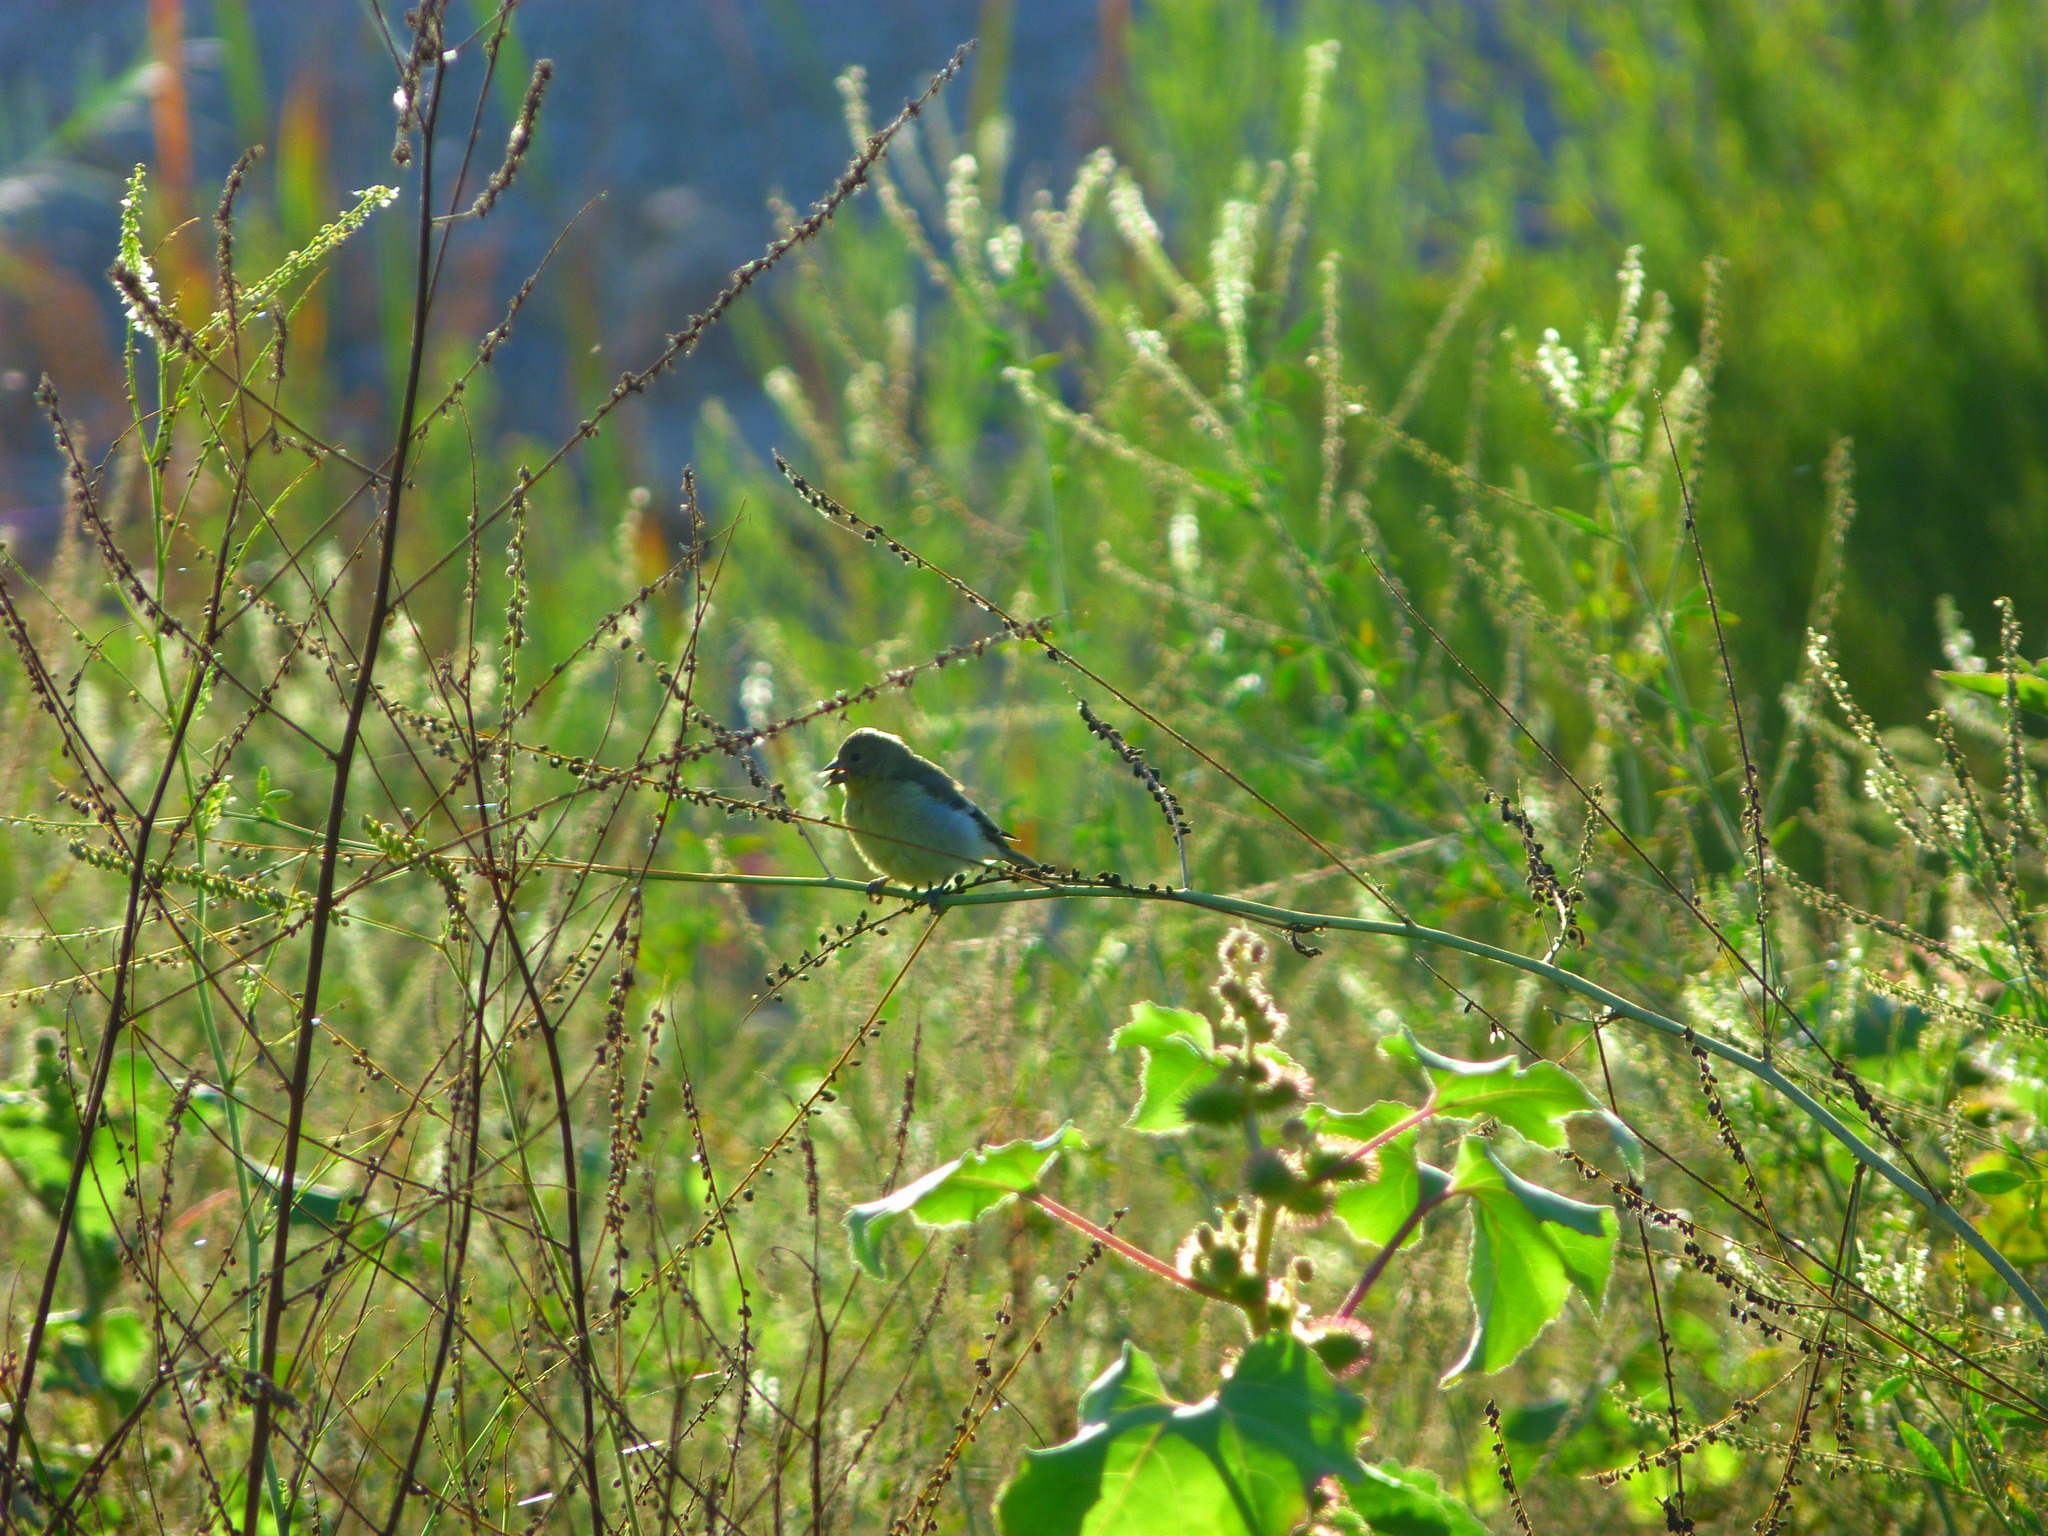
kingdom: Animalia
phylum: Chordata
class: Aves
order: Passeriformes
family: Fringillidae
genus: Spinus
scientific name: Spinus psaltria
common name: Lesser goldfinch
